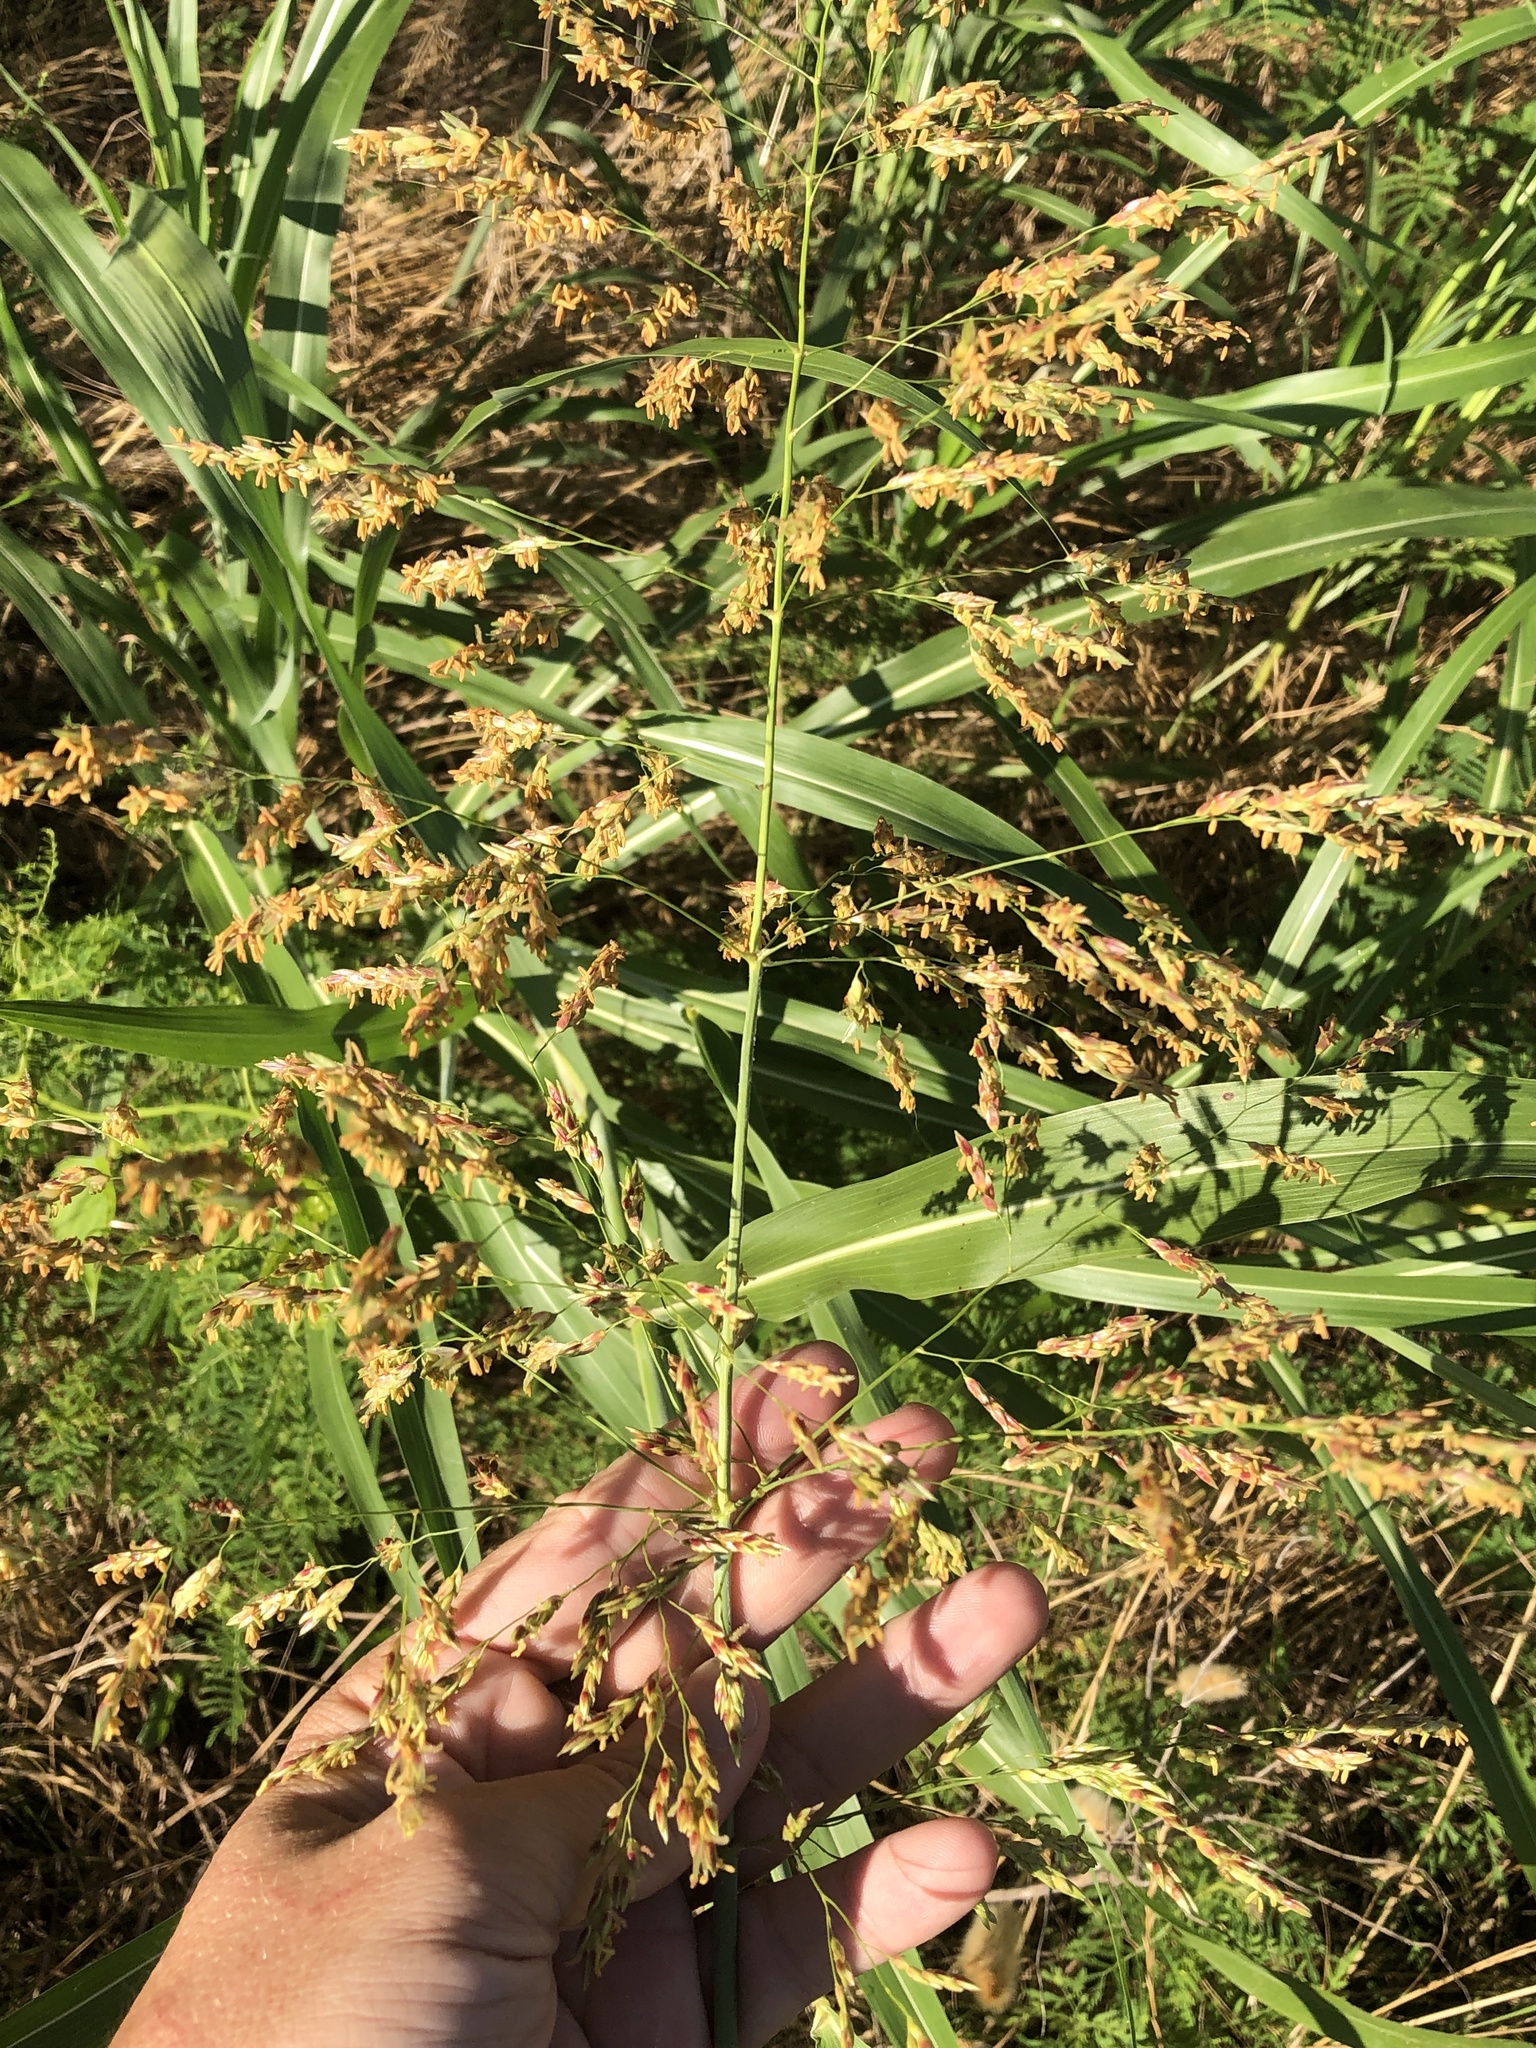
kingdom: Plantae
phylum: Tracheophyta
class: Liliopsida
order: Poales
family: Poaceae
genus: Sorghum
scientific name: Sorghum halepense
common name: Johnson-grass
